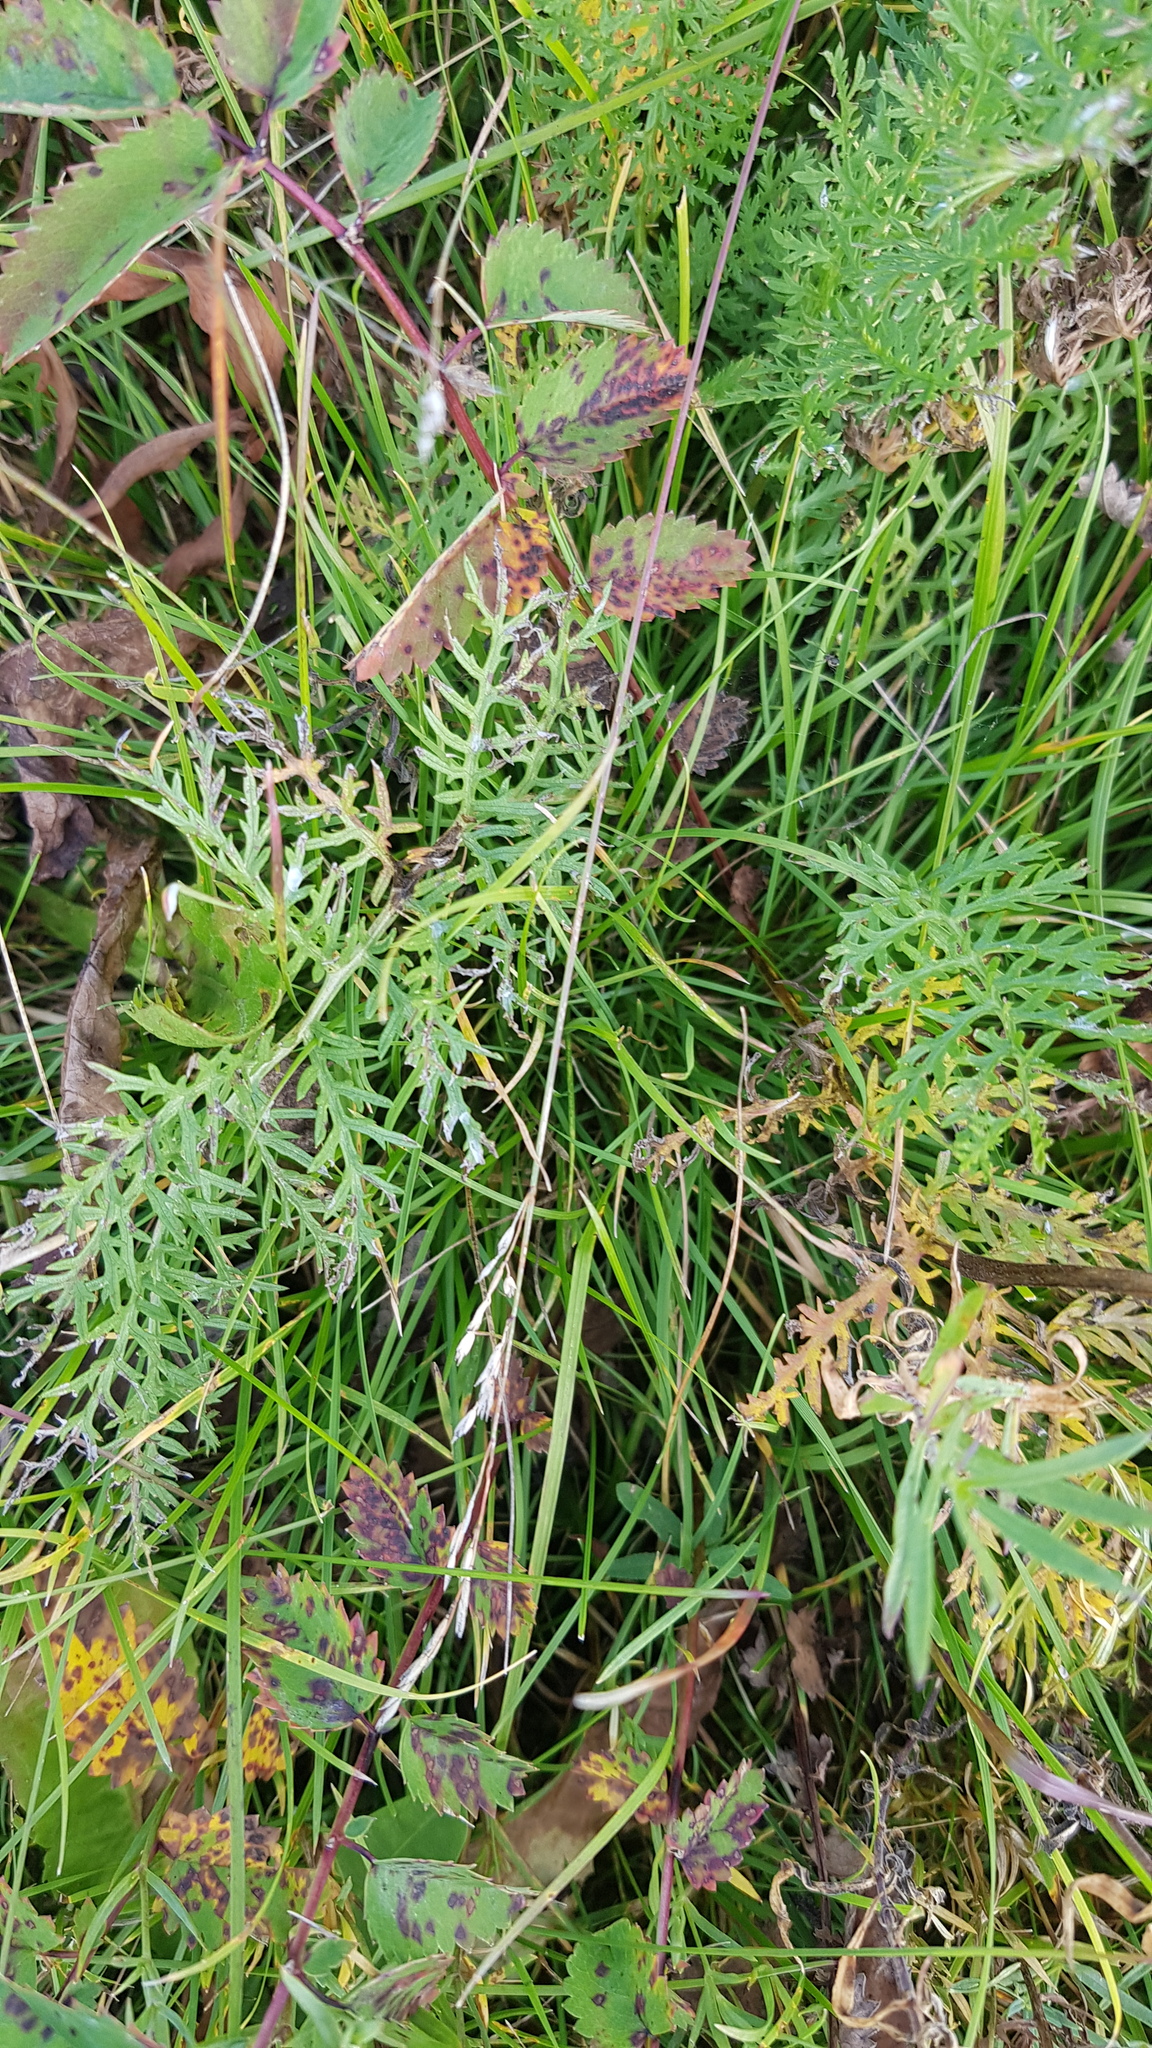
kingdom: Plantae
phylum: Tracheophyta
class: Magnoliopsida
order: Asterales
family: Asteraceae
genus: Artemisia
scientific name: Artemisia tanacetifolia
